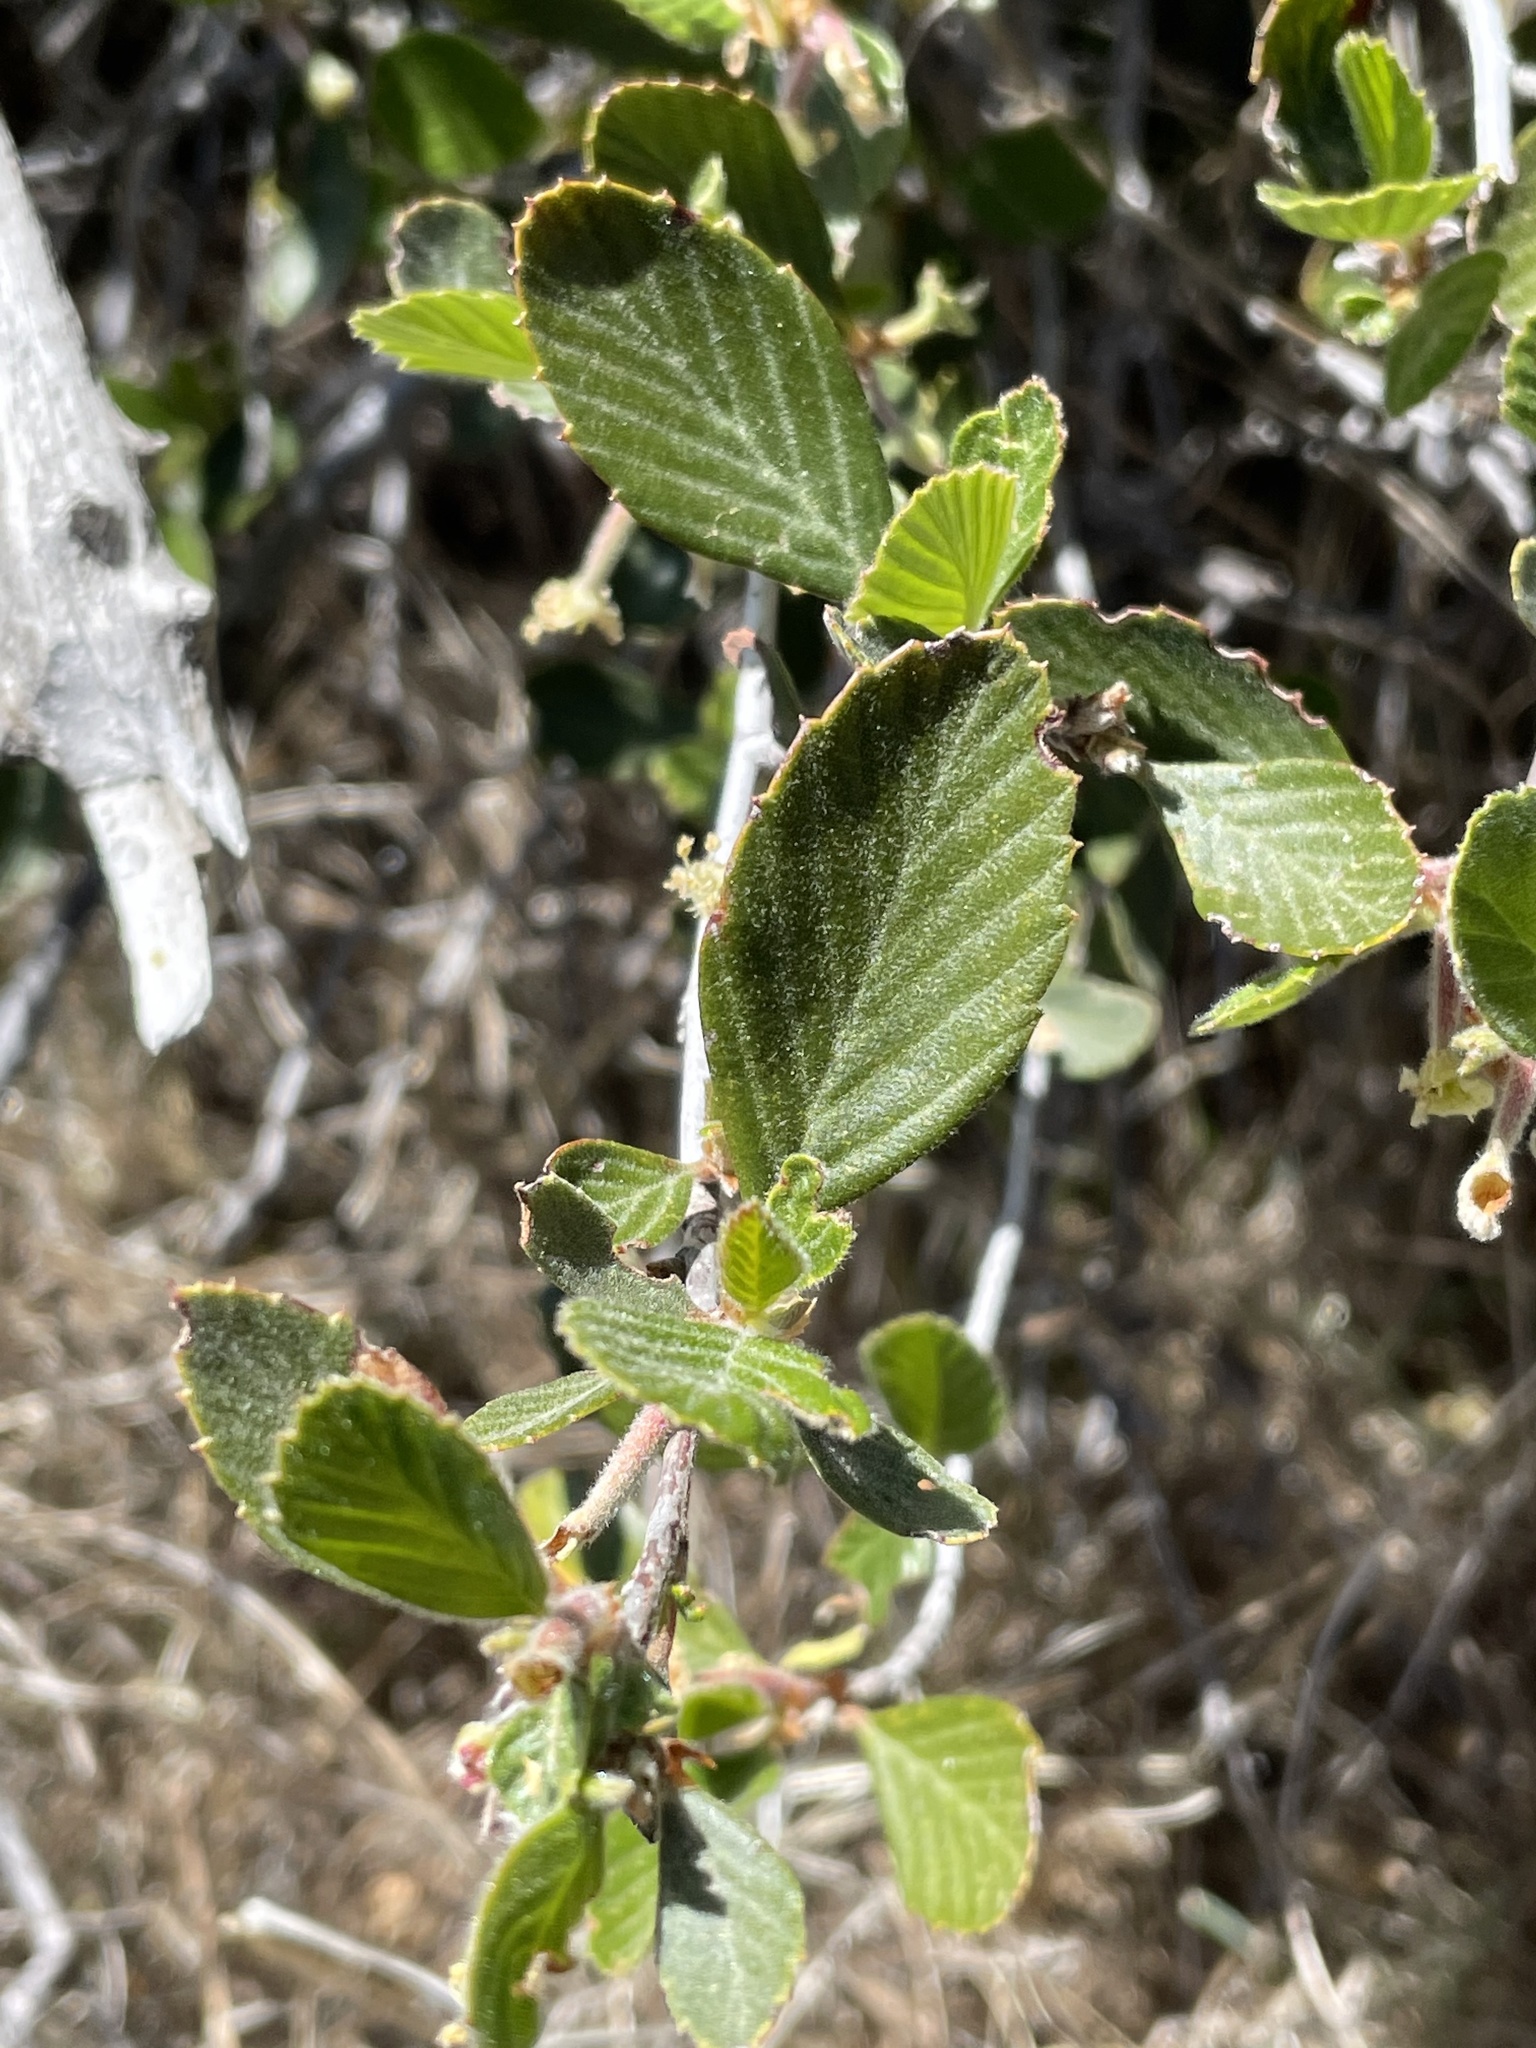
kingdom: Plantae
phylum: Tracheophyta
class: Magnoliopsida
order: Rosales
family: Rosaceae
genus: Cercocarpus
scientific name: Cercocarpus betuloides
